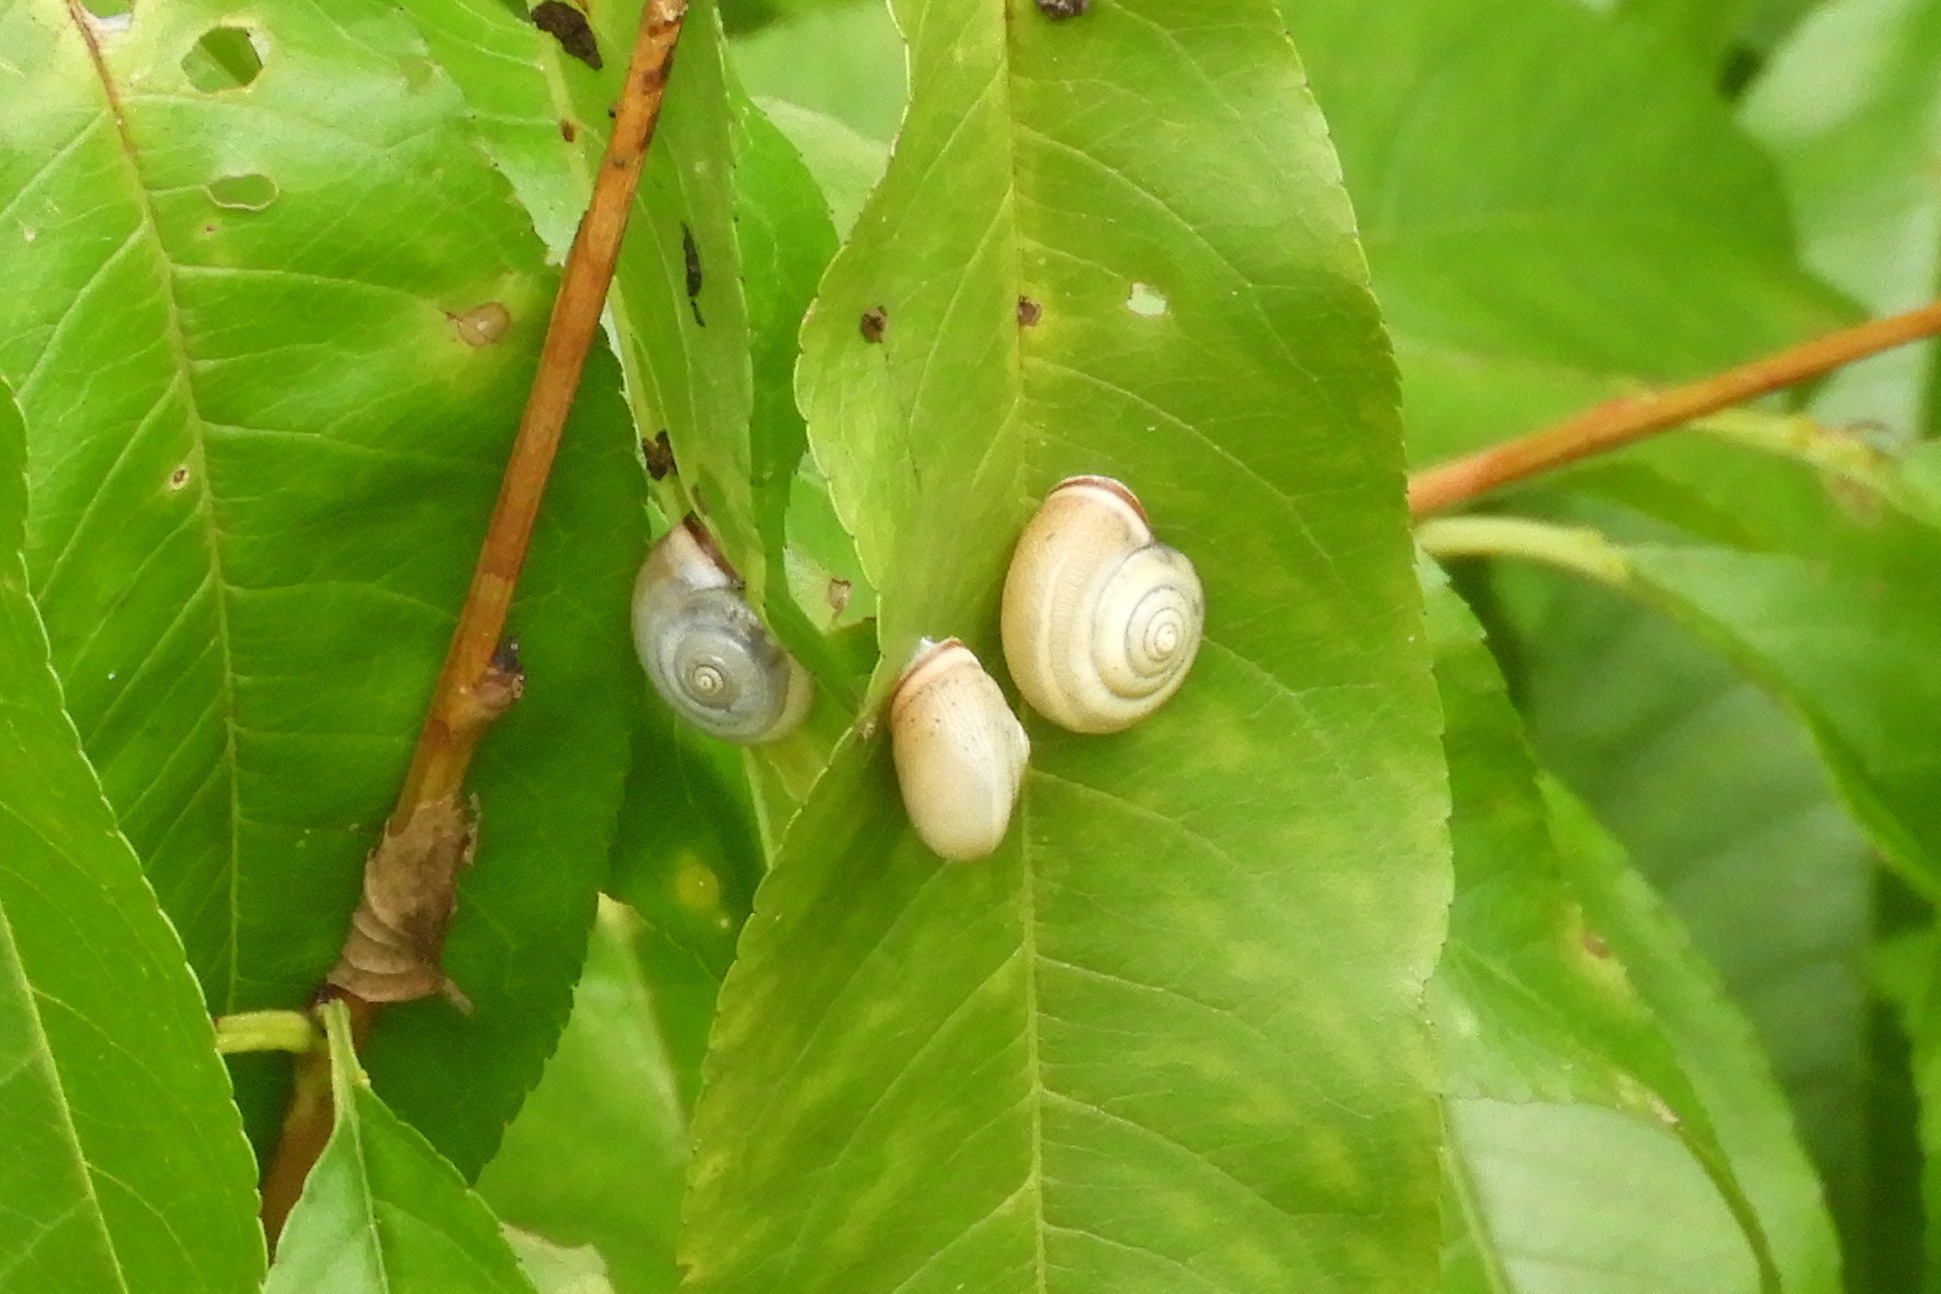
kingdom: Animalia
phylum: Mollusca
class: Gastropoda
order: Stylommatophora
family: Hygromiidae
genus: Monacha
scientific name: Monacha cartusiana
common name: Carthusian snail
